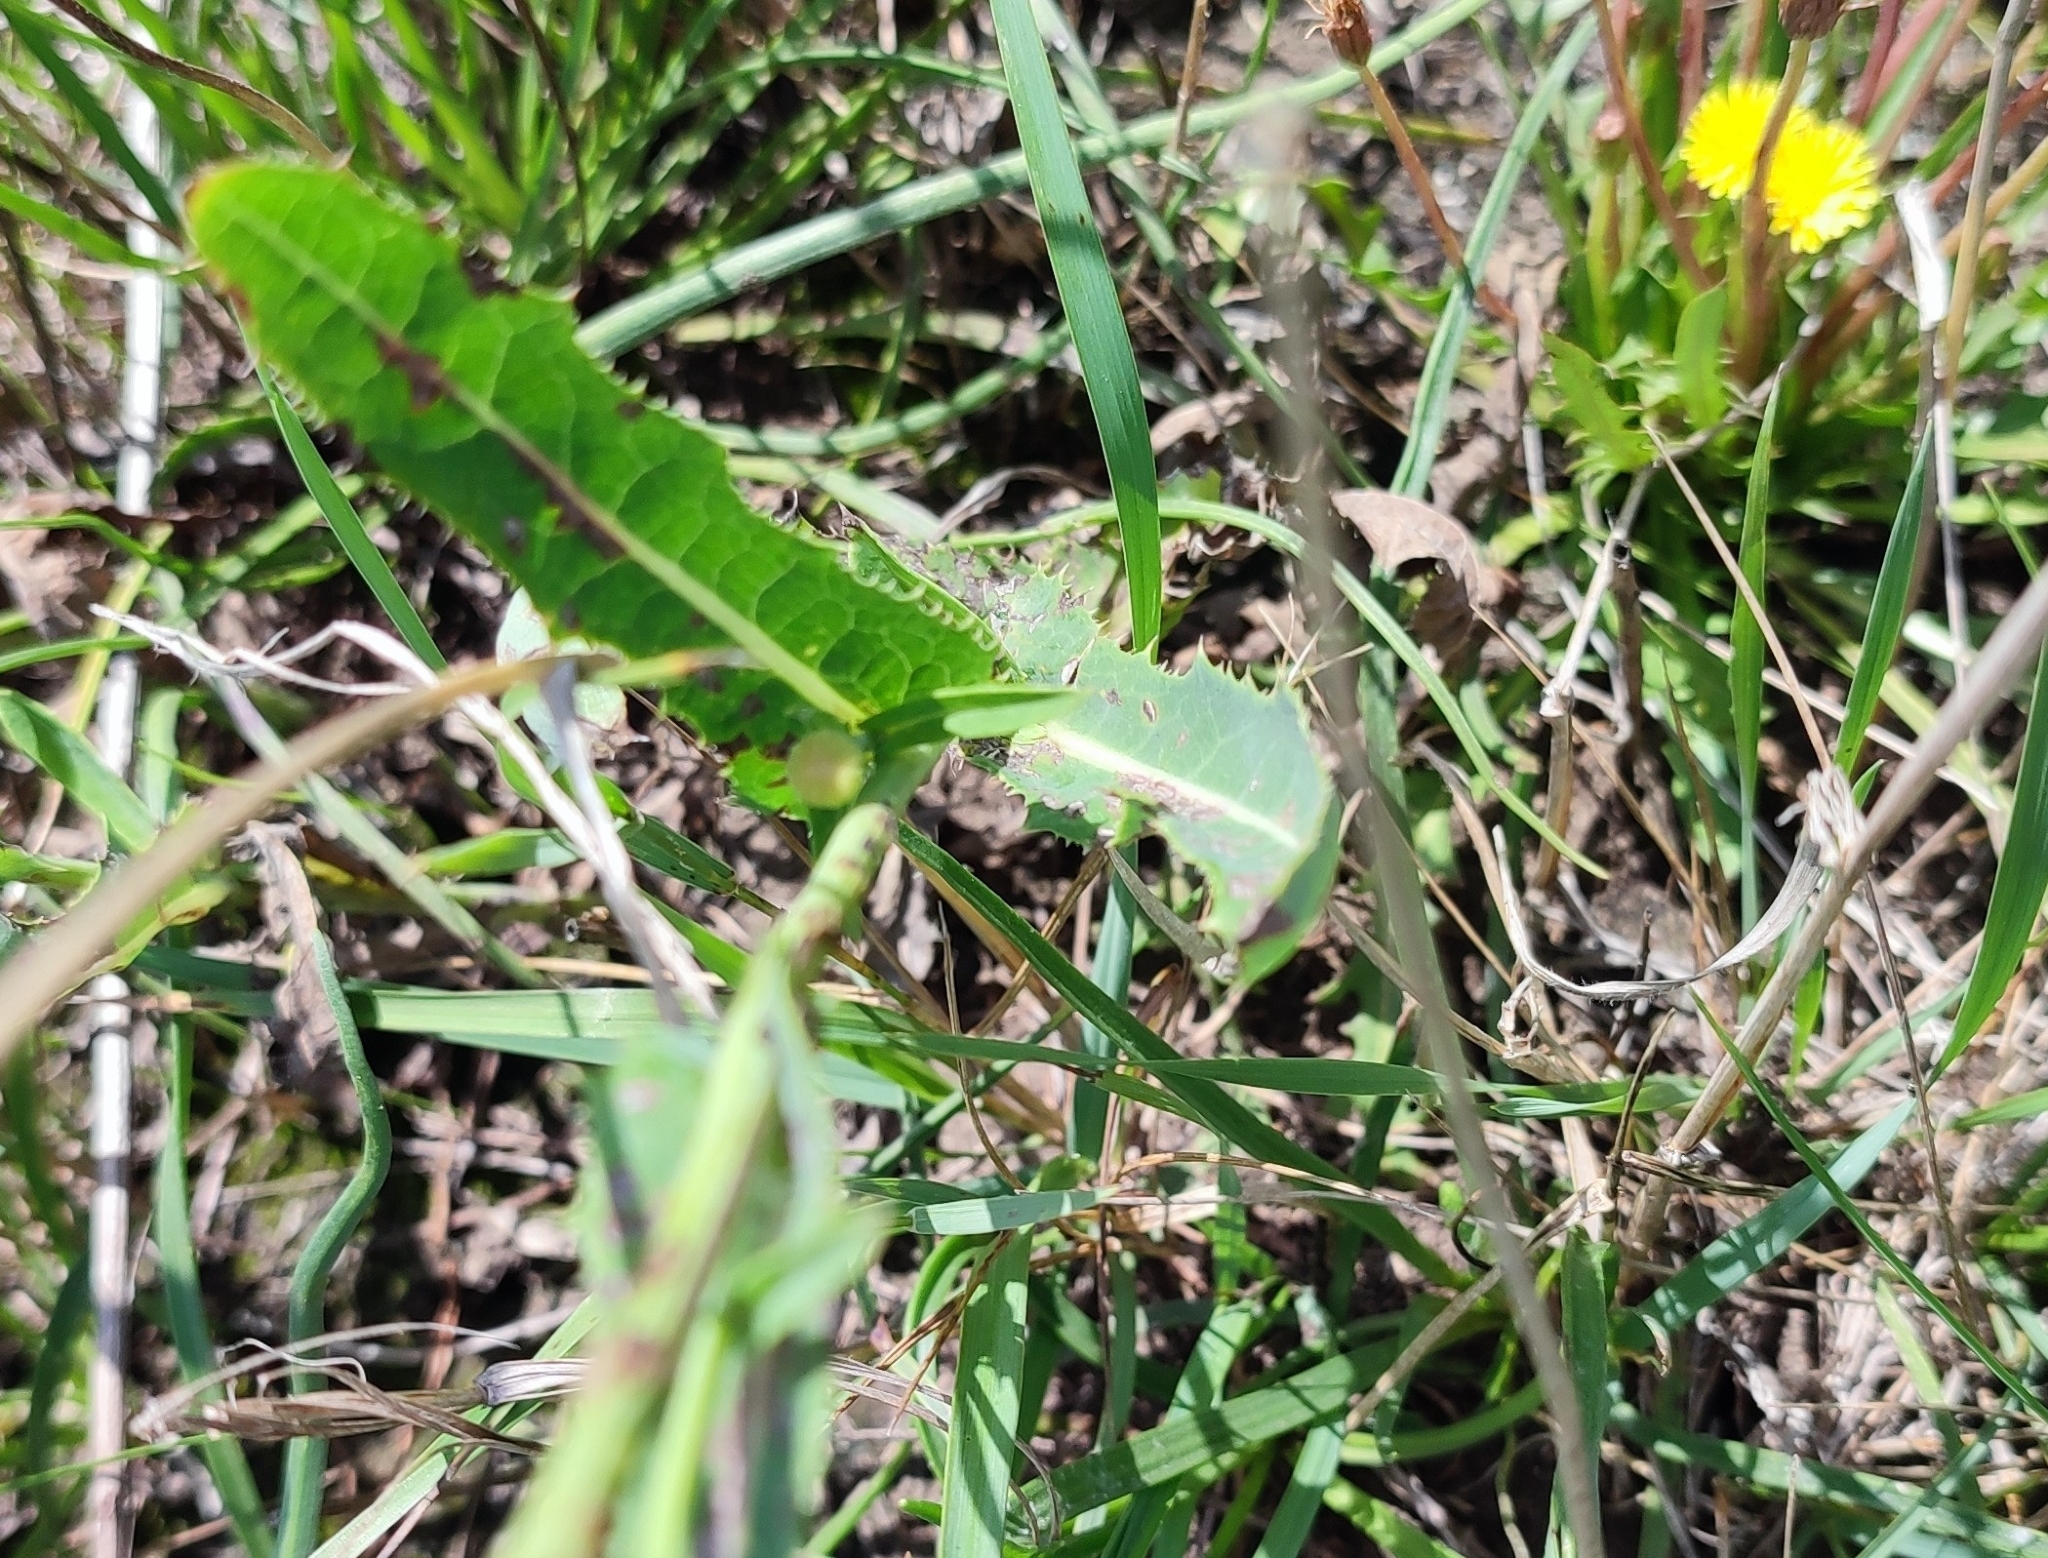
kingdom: Plantae
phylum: Tracheophyta
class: Magnoliopsida
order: Asterales
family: Asteraceae
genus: Sonchus
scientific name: Sonchus arvensis
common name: Perennial sow-thistle
